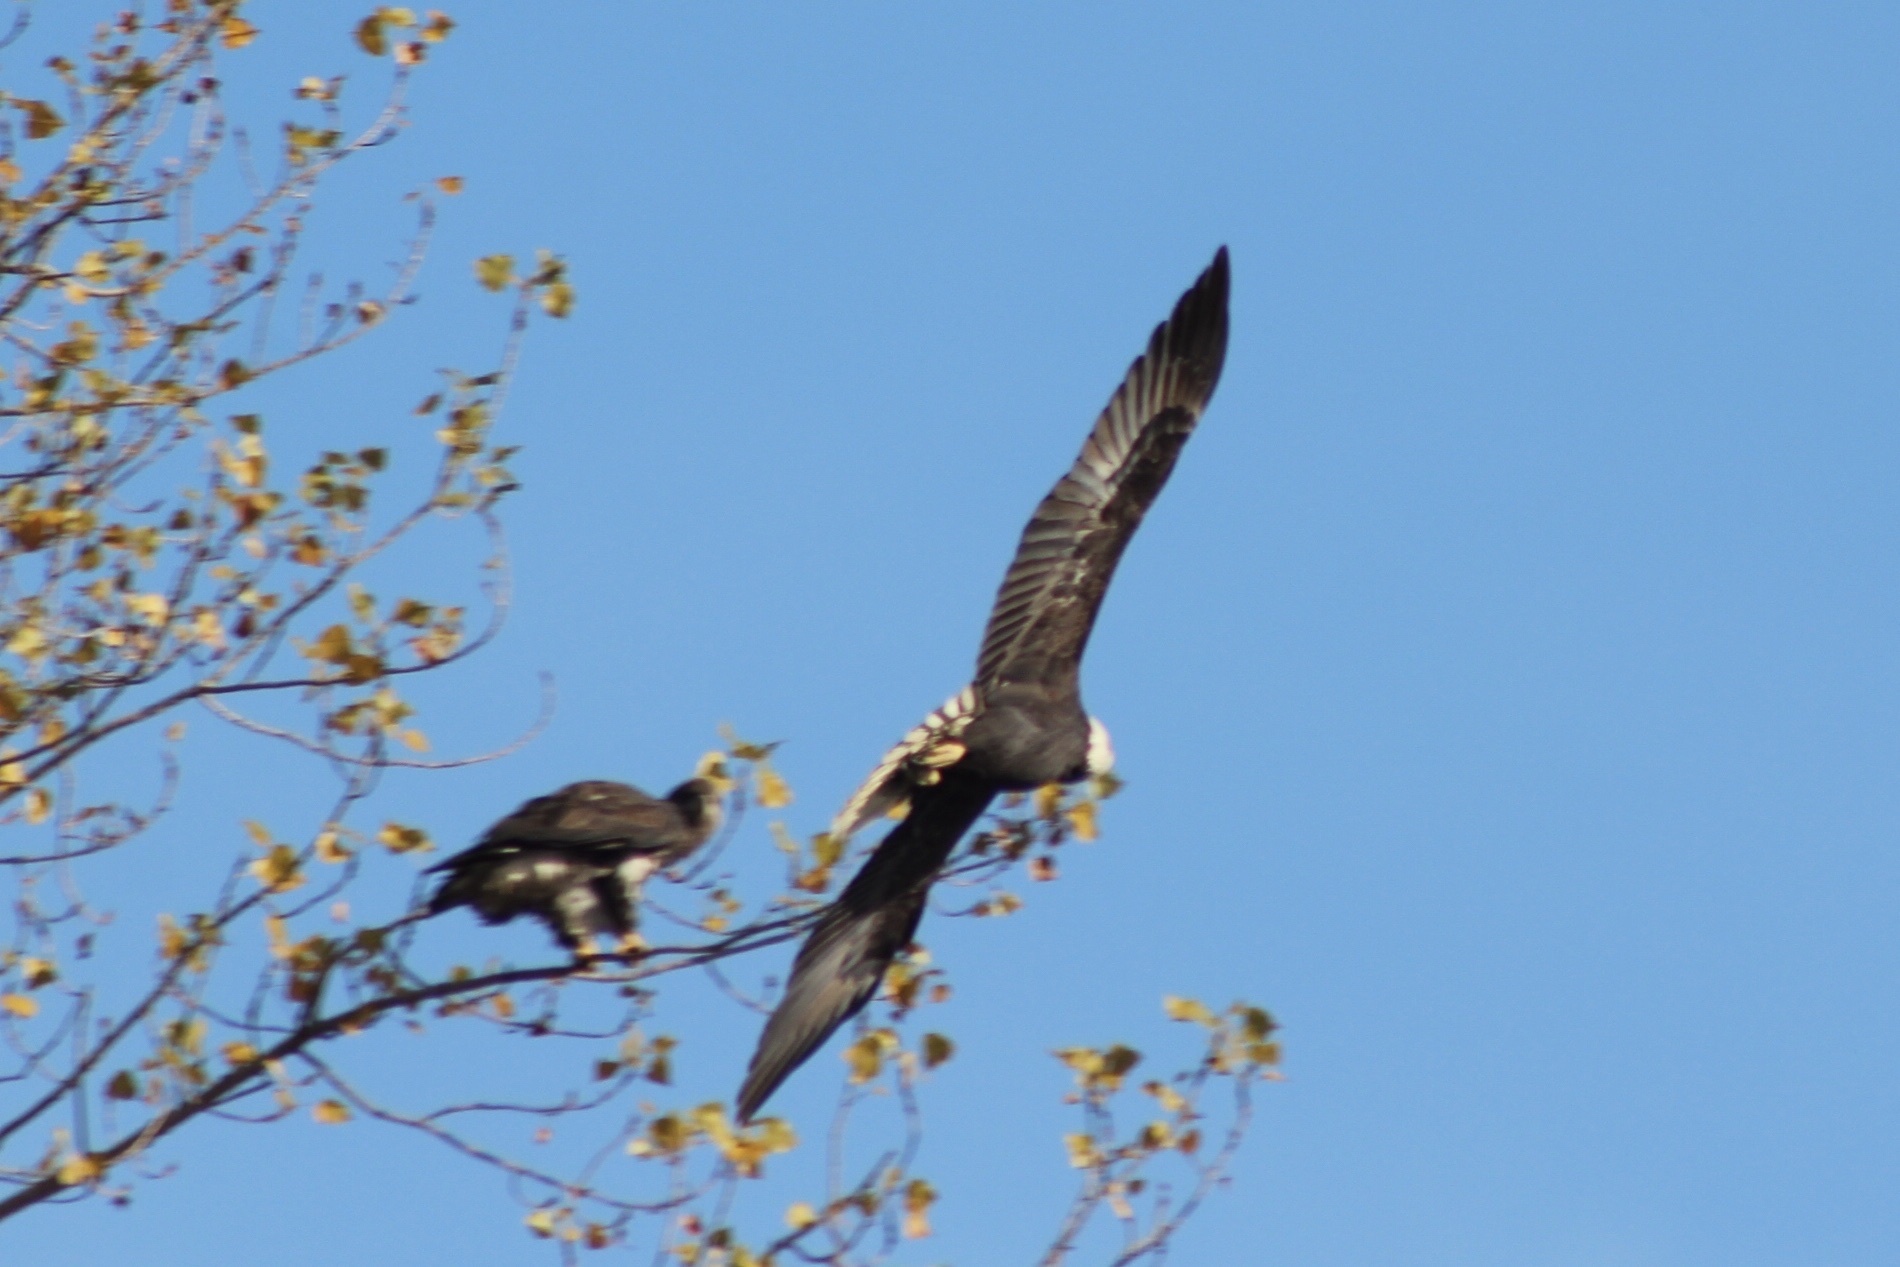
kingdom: Animalia
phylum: Chordata
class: Aves
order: Accipitriformes
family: Accipitridae
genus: Haliaeetus
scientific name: Haliaeetus leucocephalus
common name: Bald eagle
